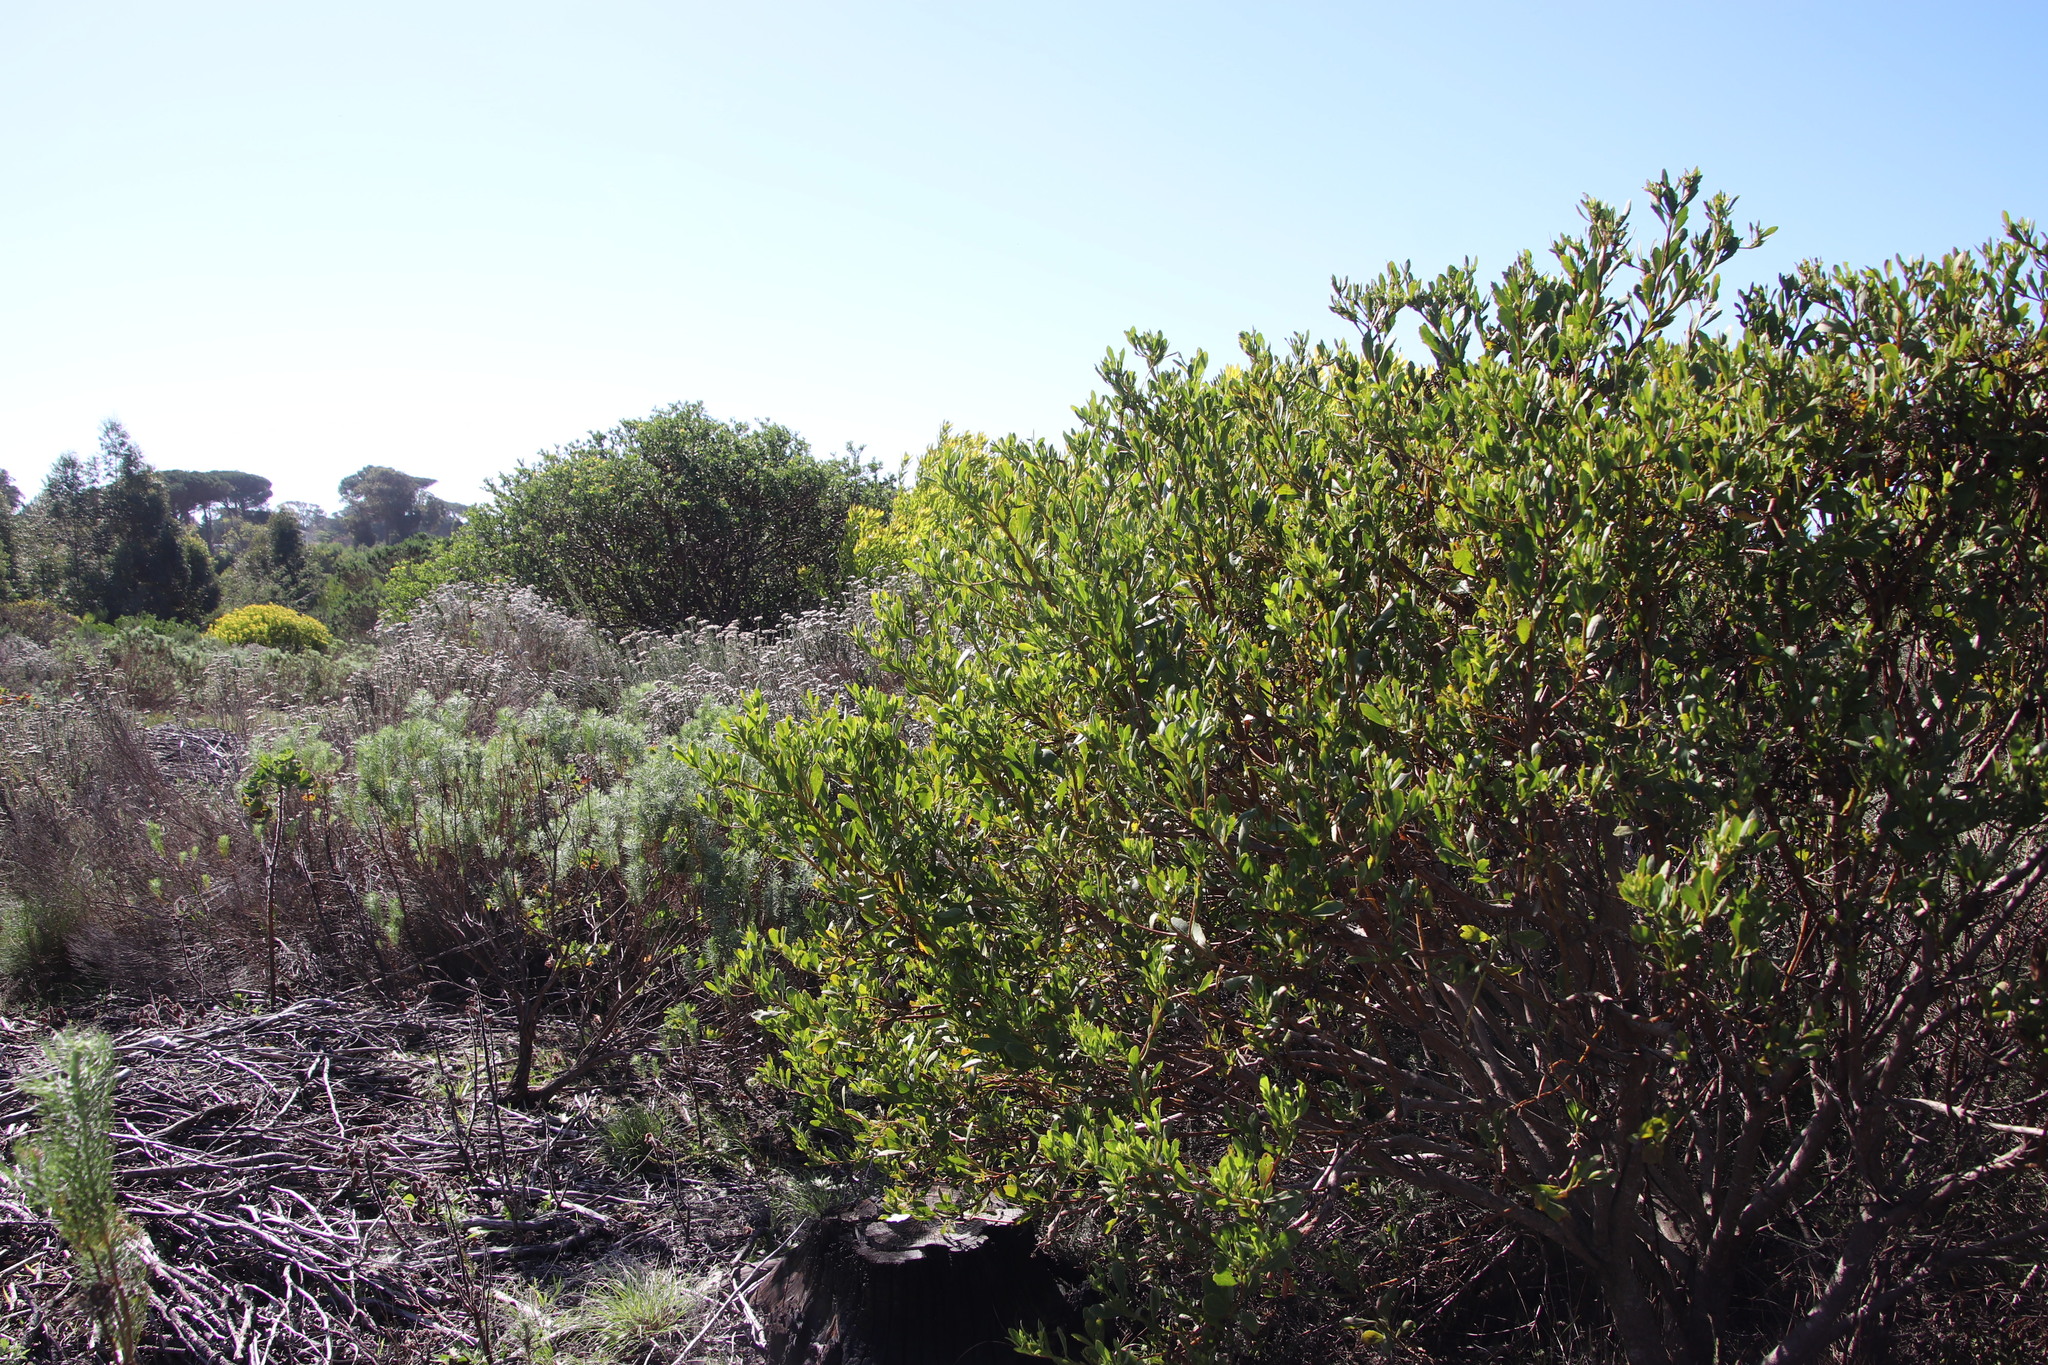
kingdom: Plantae
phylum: Tracheophyta
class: Magnoliopsida
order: Asterales
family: Asteraceae
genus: Osteospermum
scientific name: Osteospermum moniliferum
